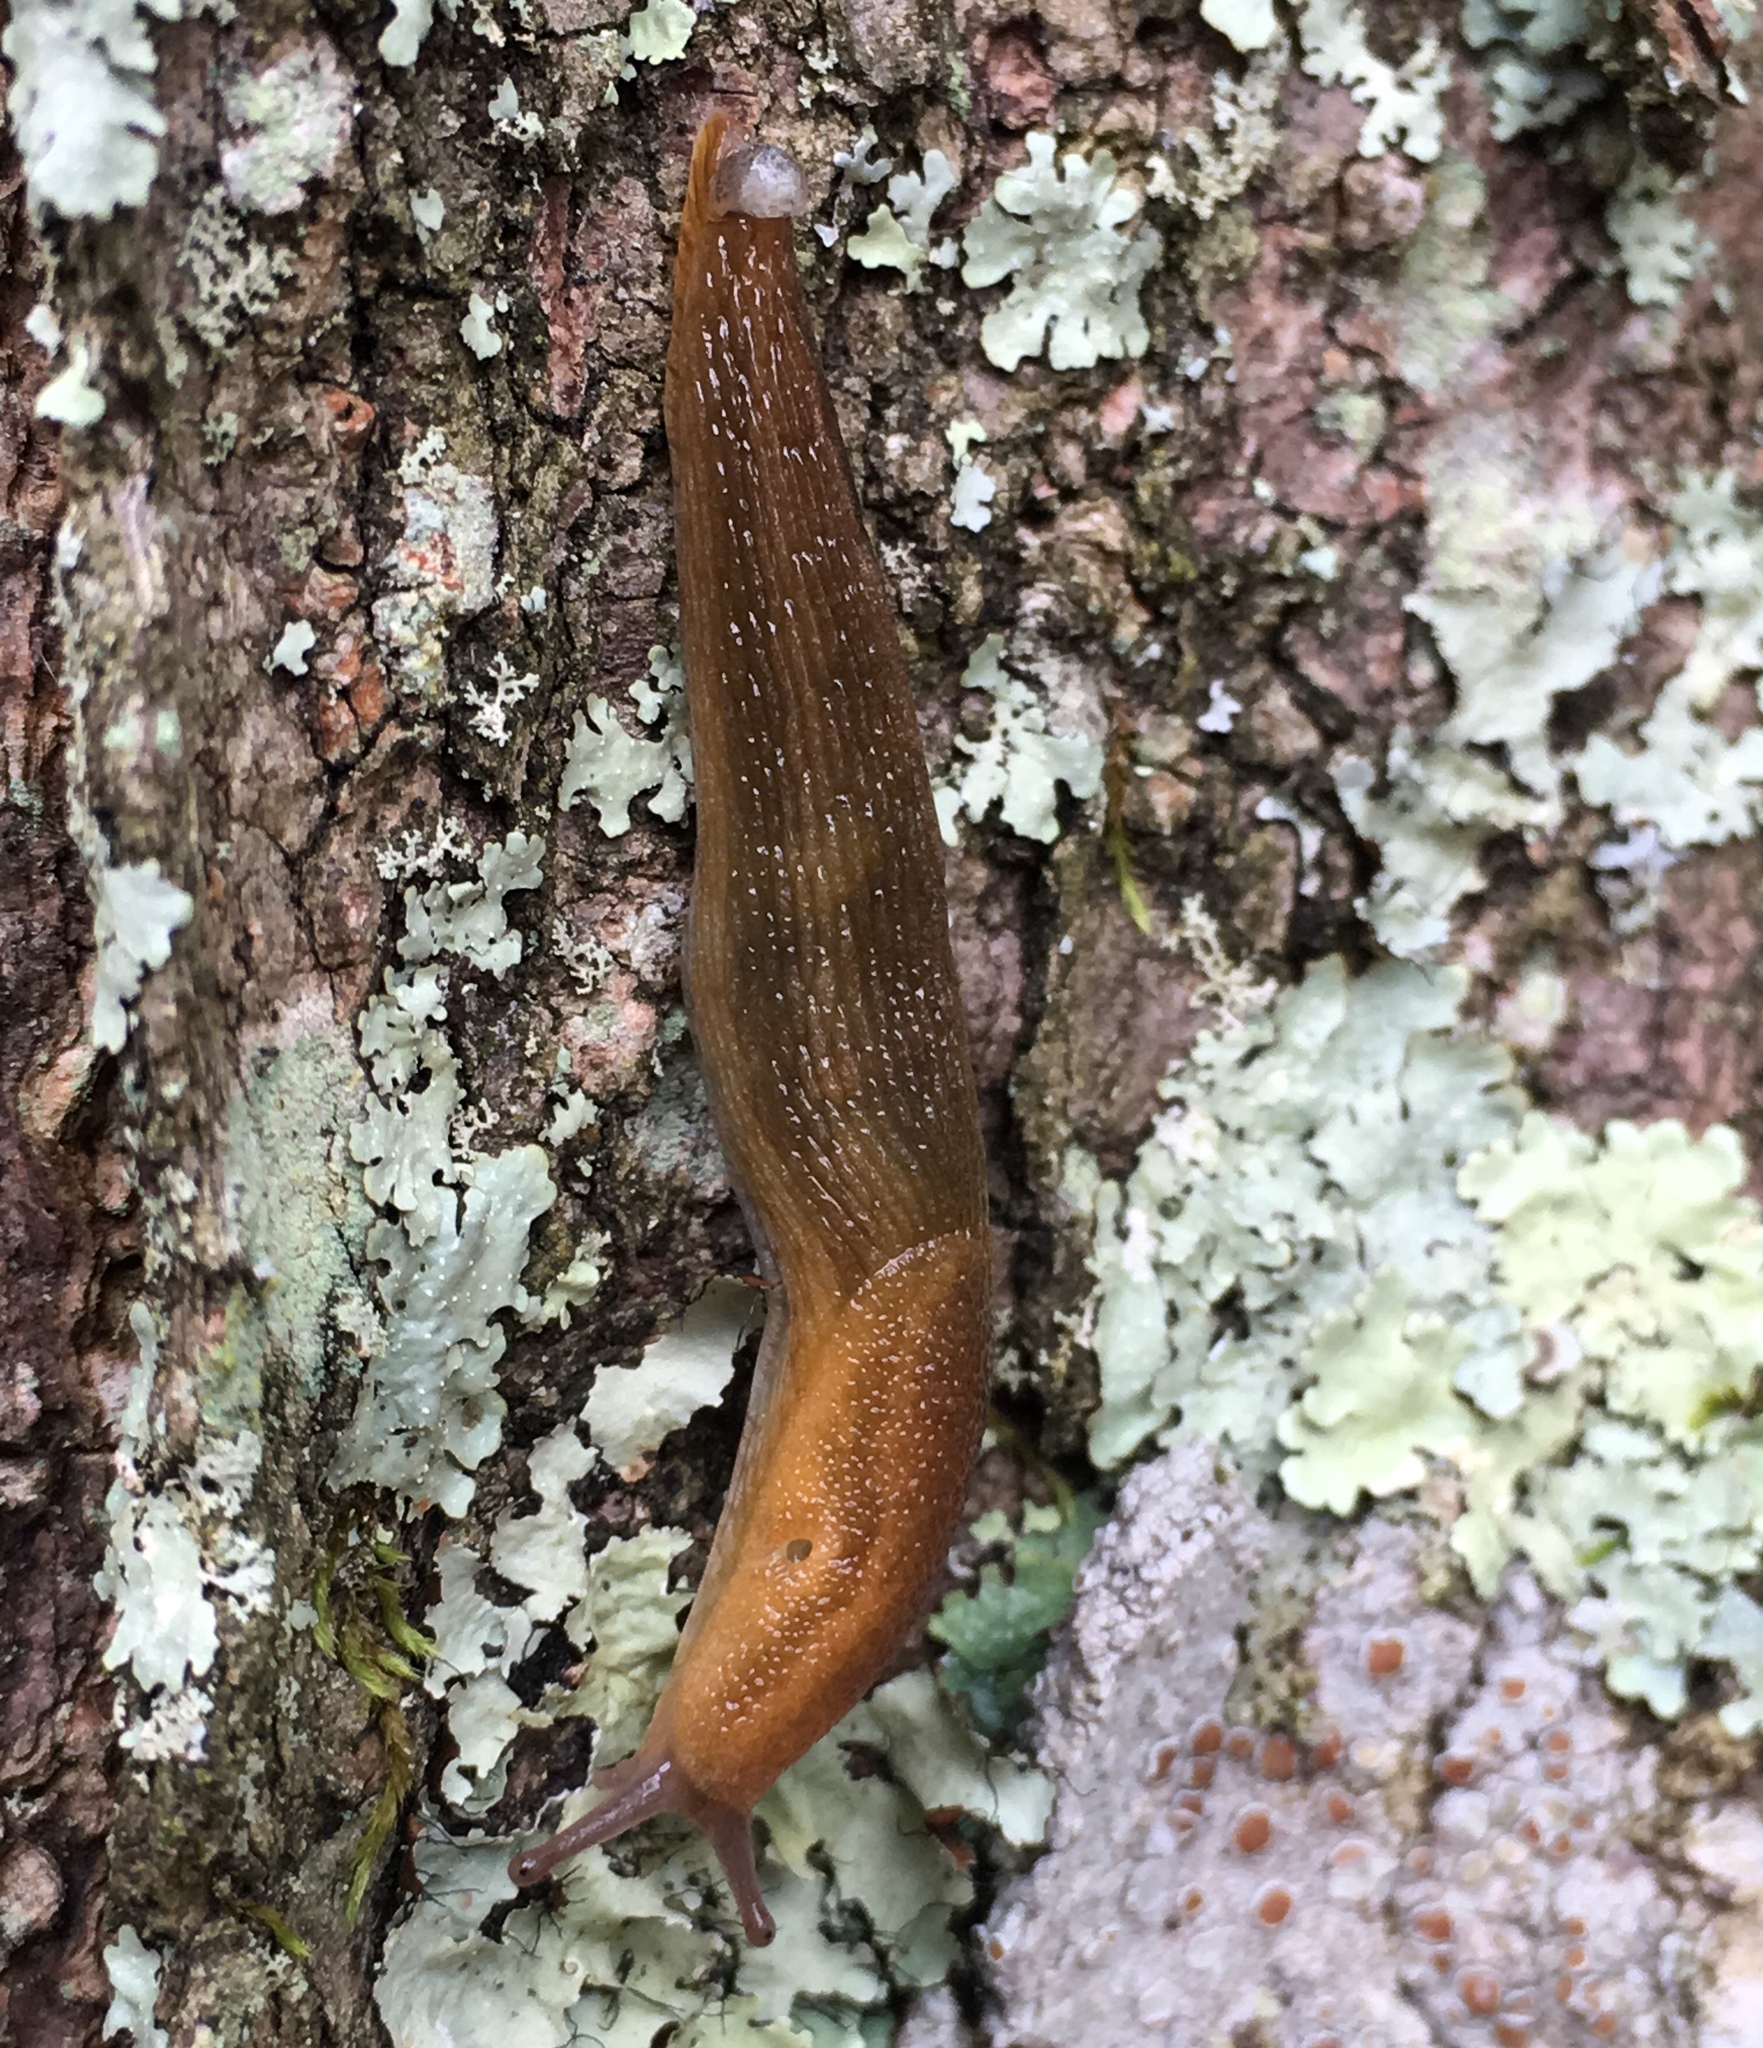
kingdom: Animalia
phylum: Mollusca
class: Gastropoda
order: Stylommatophora
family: Arionidae
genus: Arion
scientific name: Arion subfuscus
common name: Dusky arion
